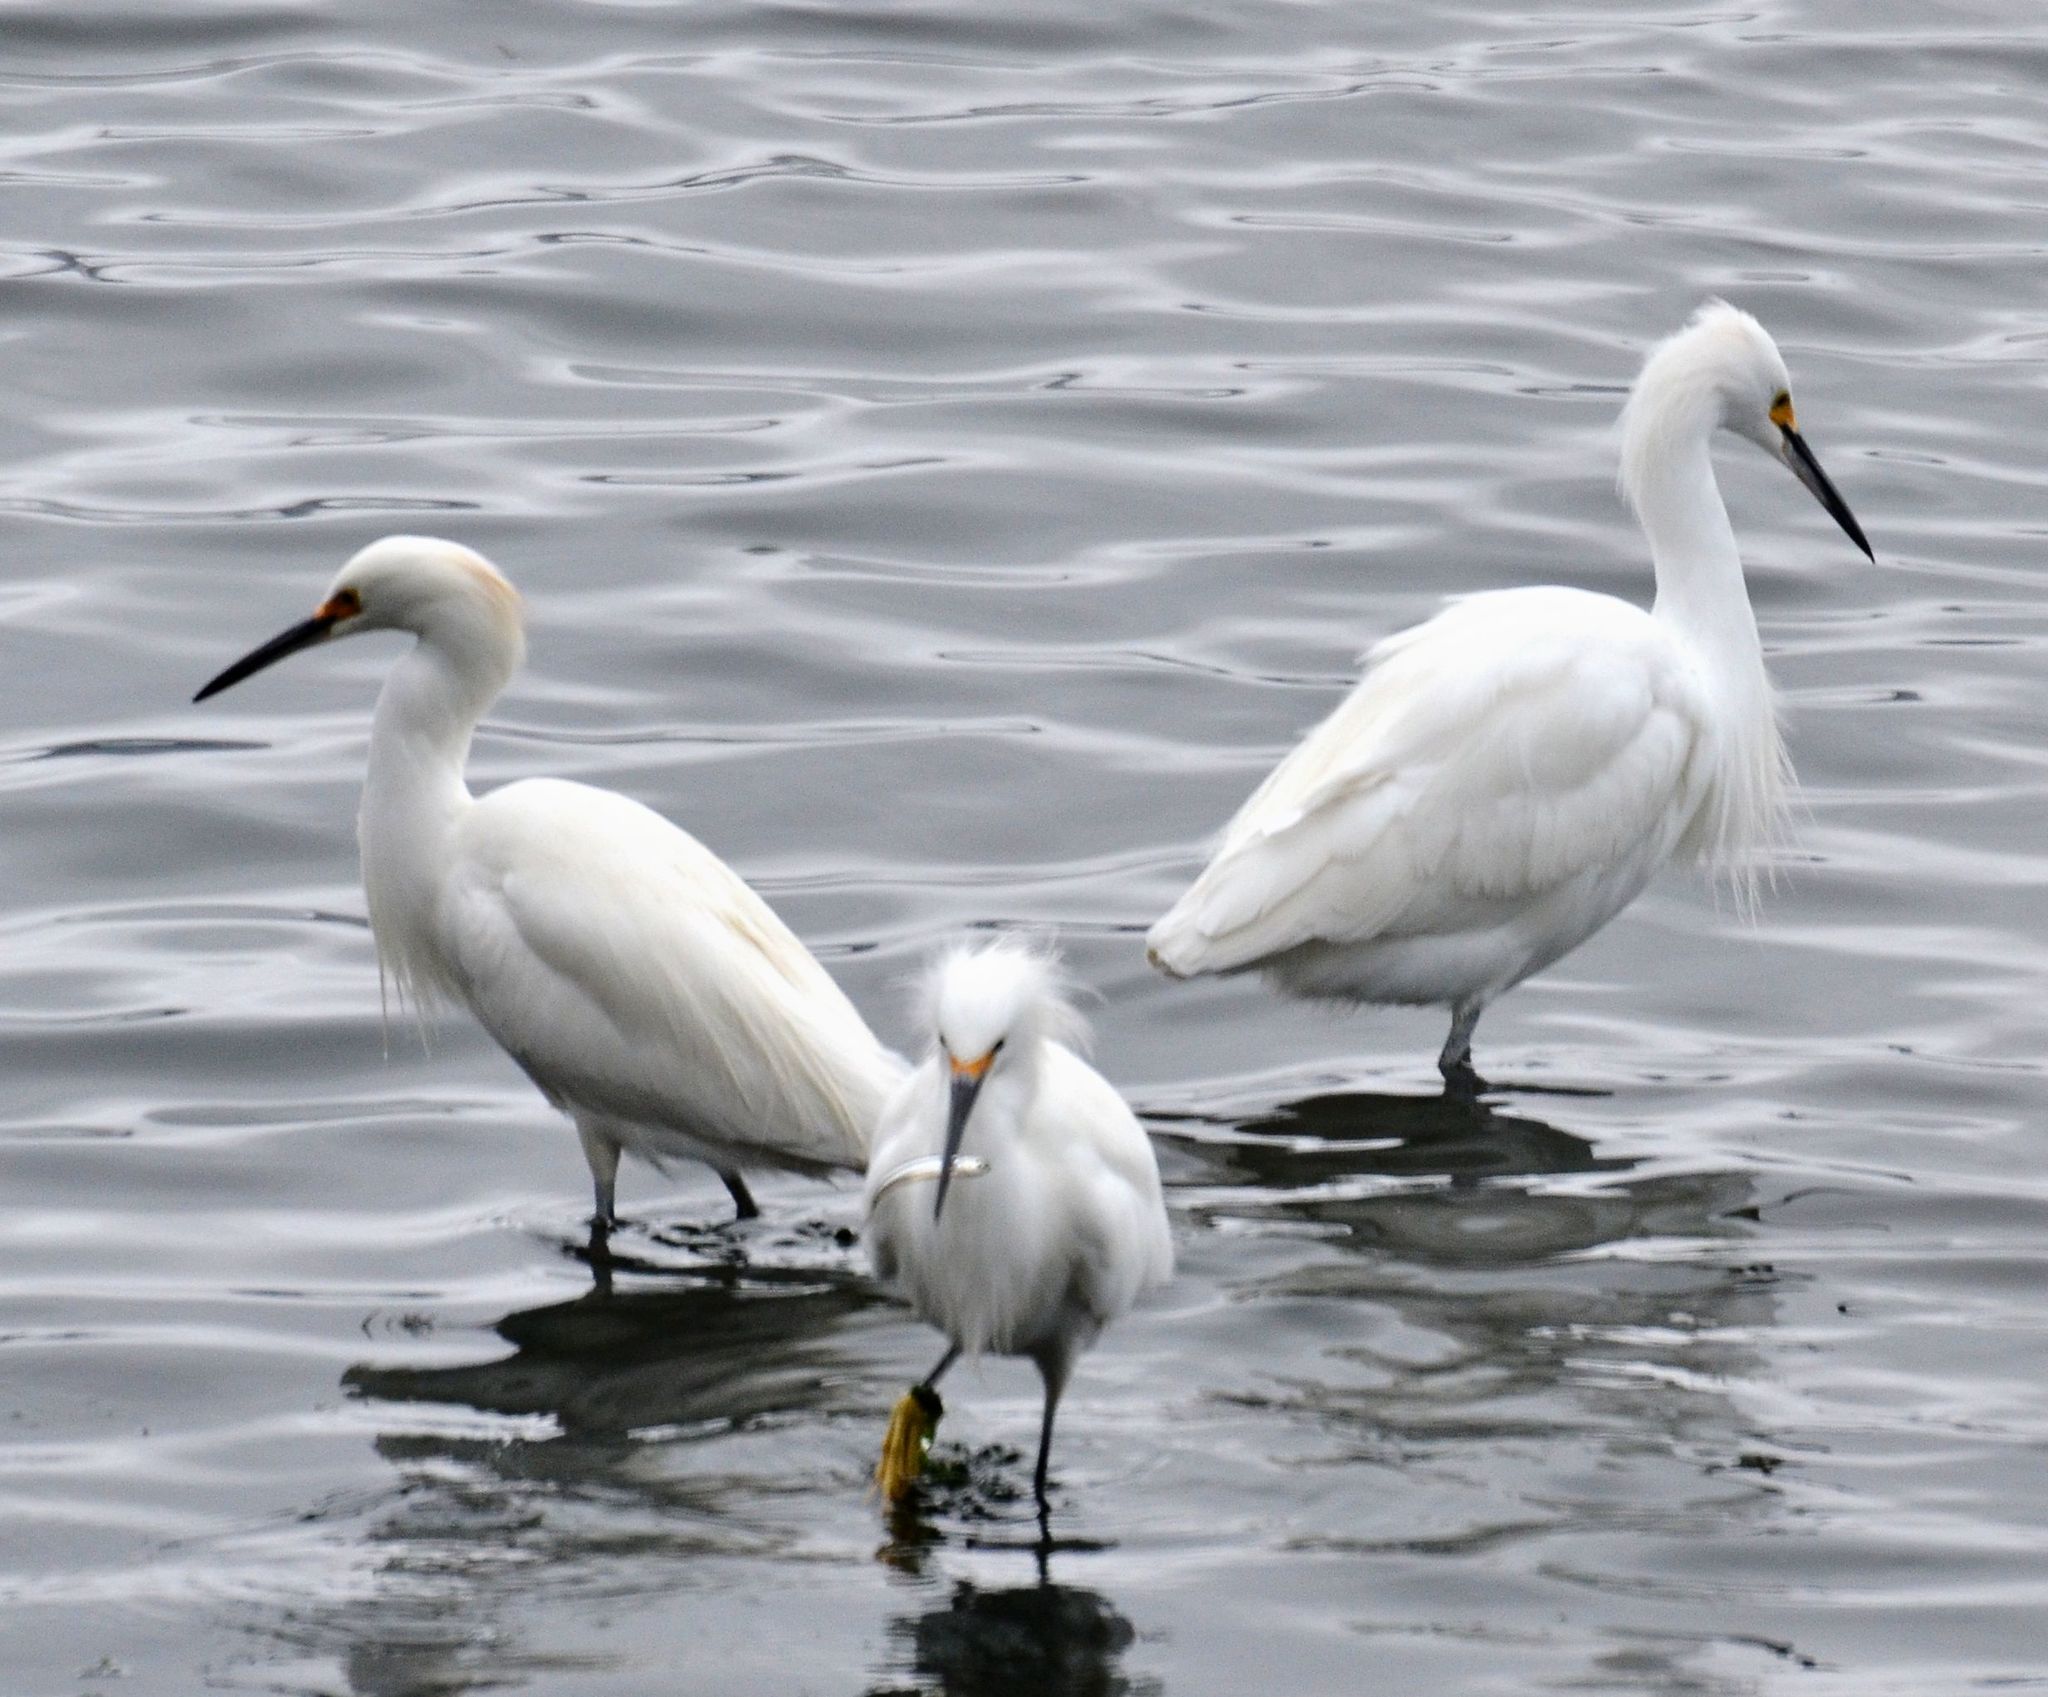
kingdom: Animalia
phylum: Chordata
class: Aves
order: Pelecaniformes
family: Ardeidae
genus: Egretta
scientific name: Egretta thula
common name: Snowy egret
